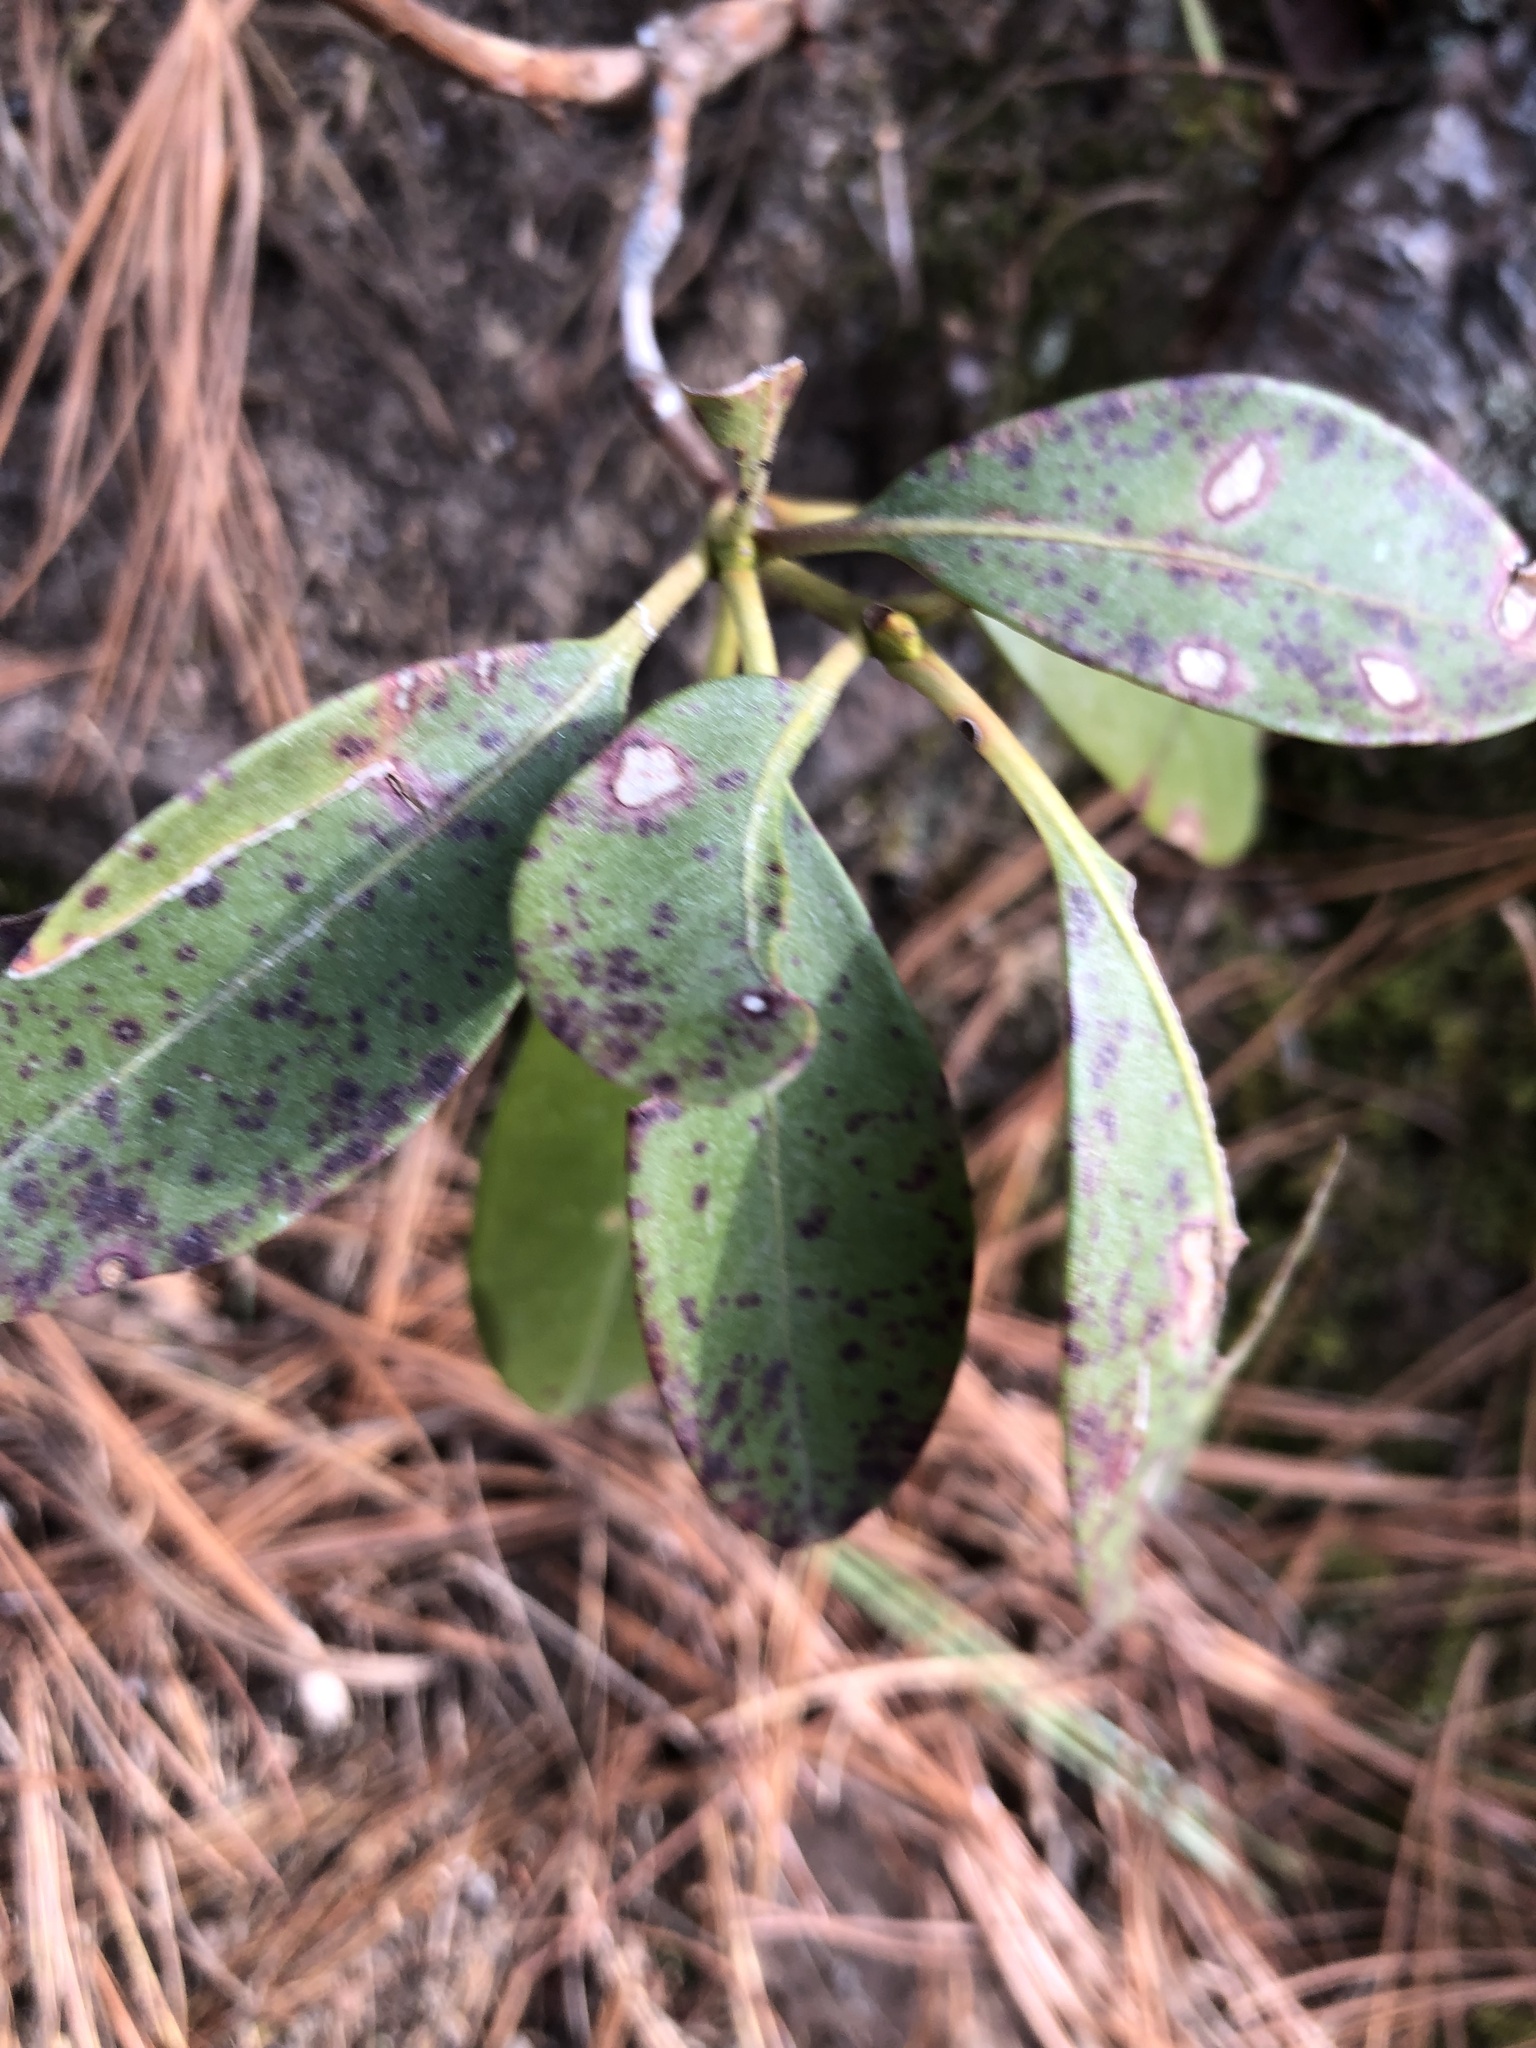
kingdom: Plantae
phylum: Tracheophyta
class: Magnoliopsida
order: Ericales
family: Ericaceae
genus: Kalmia
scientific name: Kalmia latifolia
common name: Mountain-laurel
